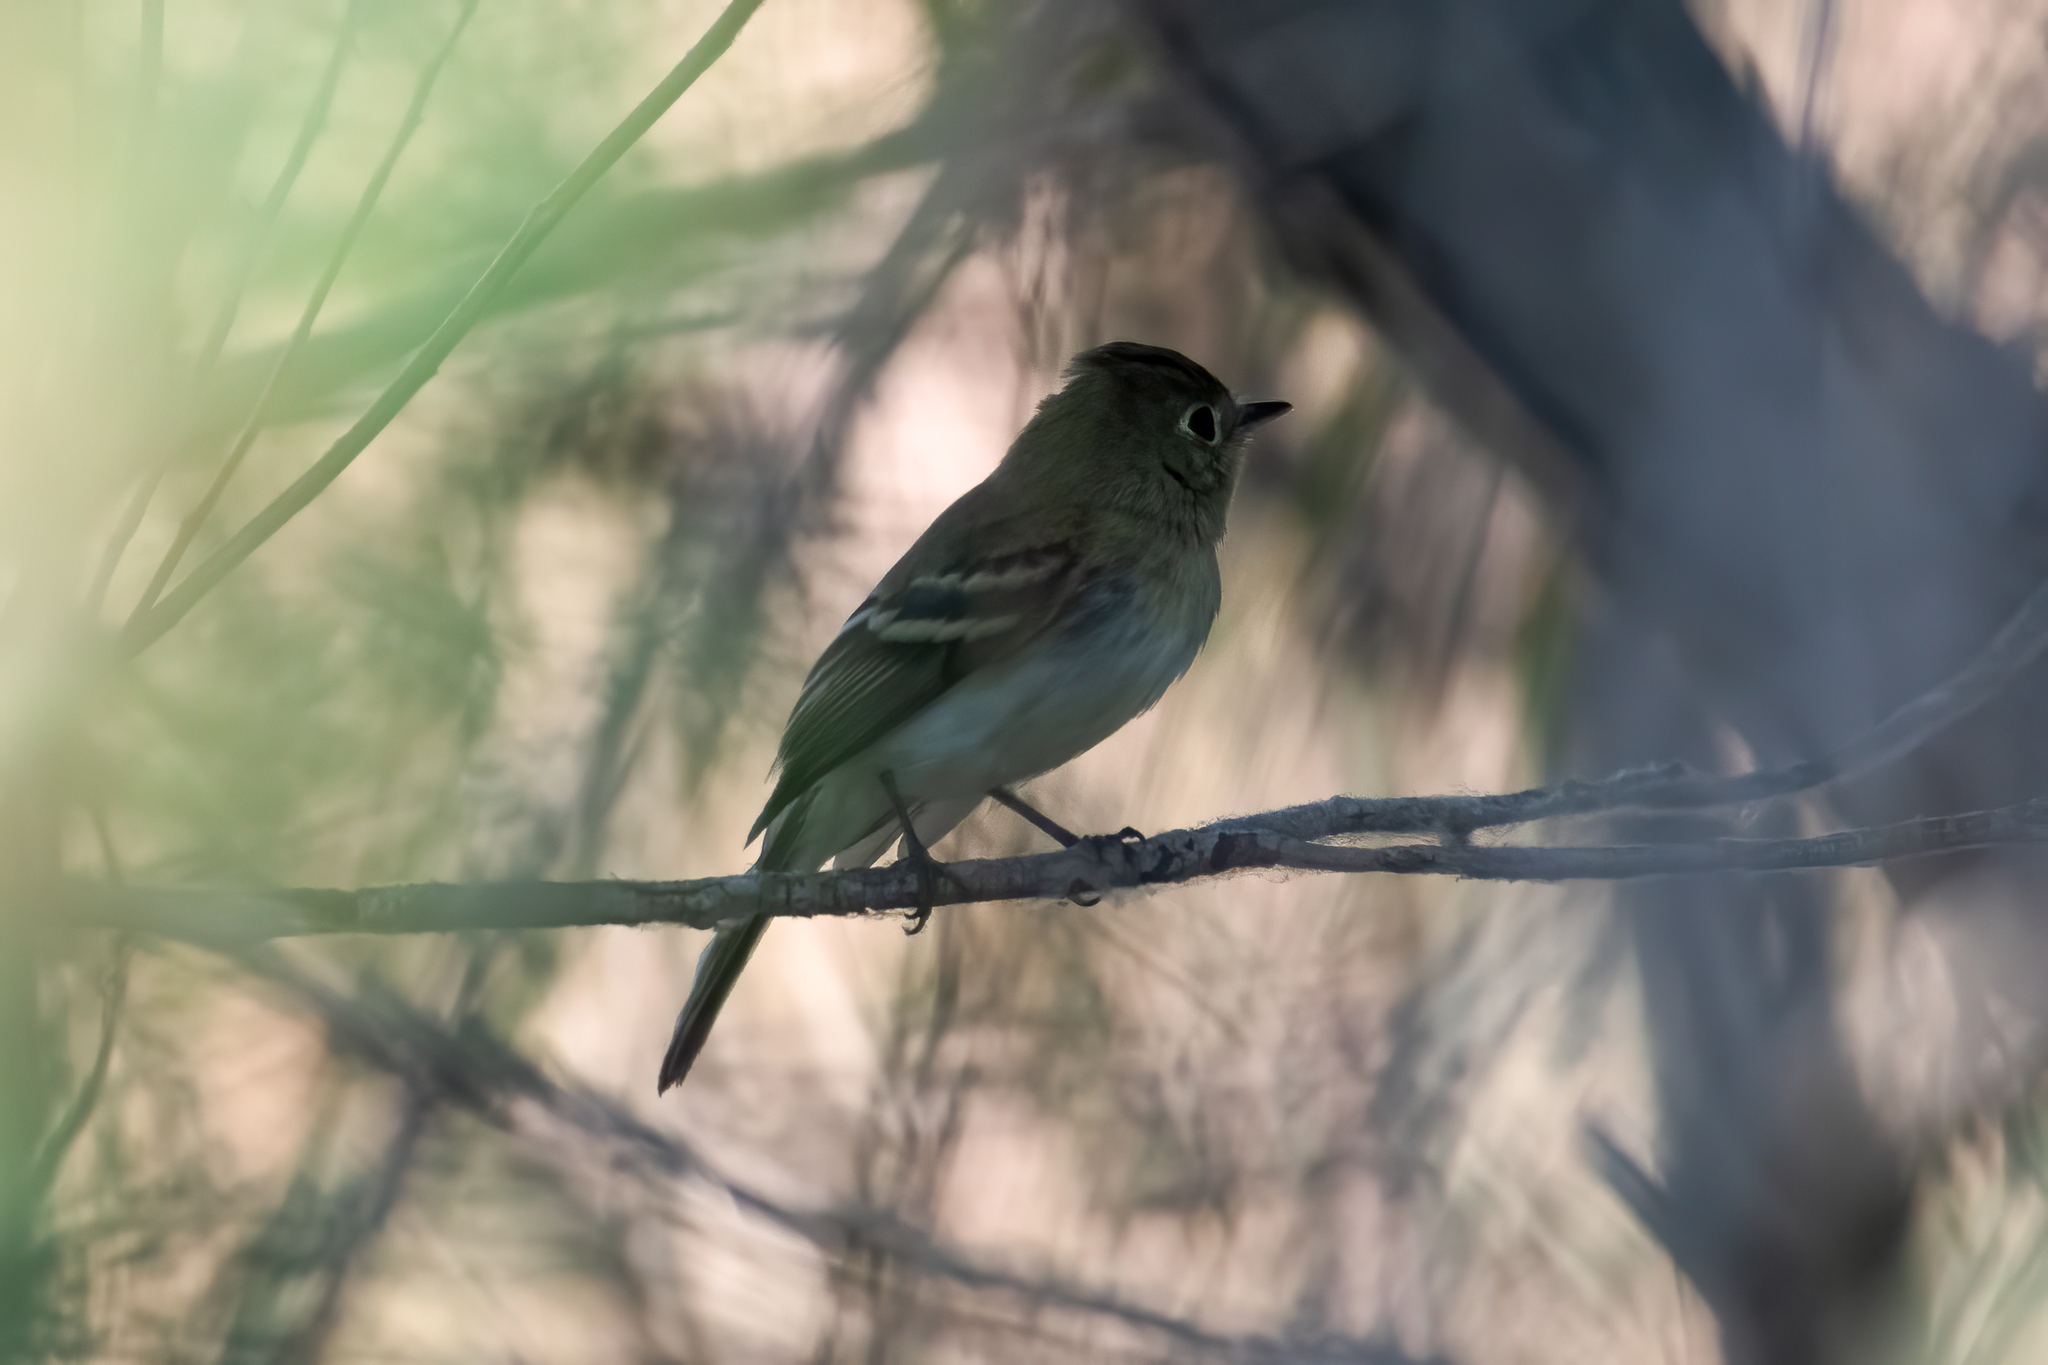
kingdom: Animalia
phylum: Chordata
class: Aves
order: Passeriformes
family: Tyrannidae
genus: Empidonax
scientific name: Empidonax difficilis
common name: Pacific-slope flycatcher
